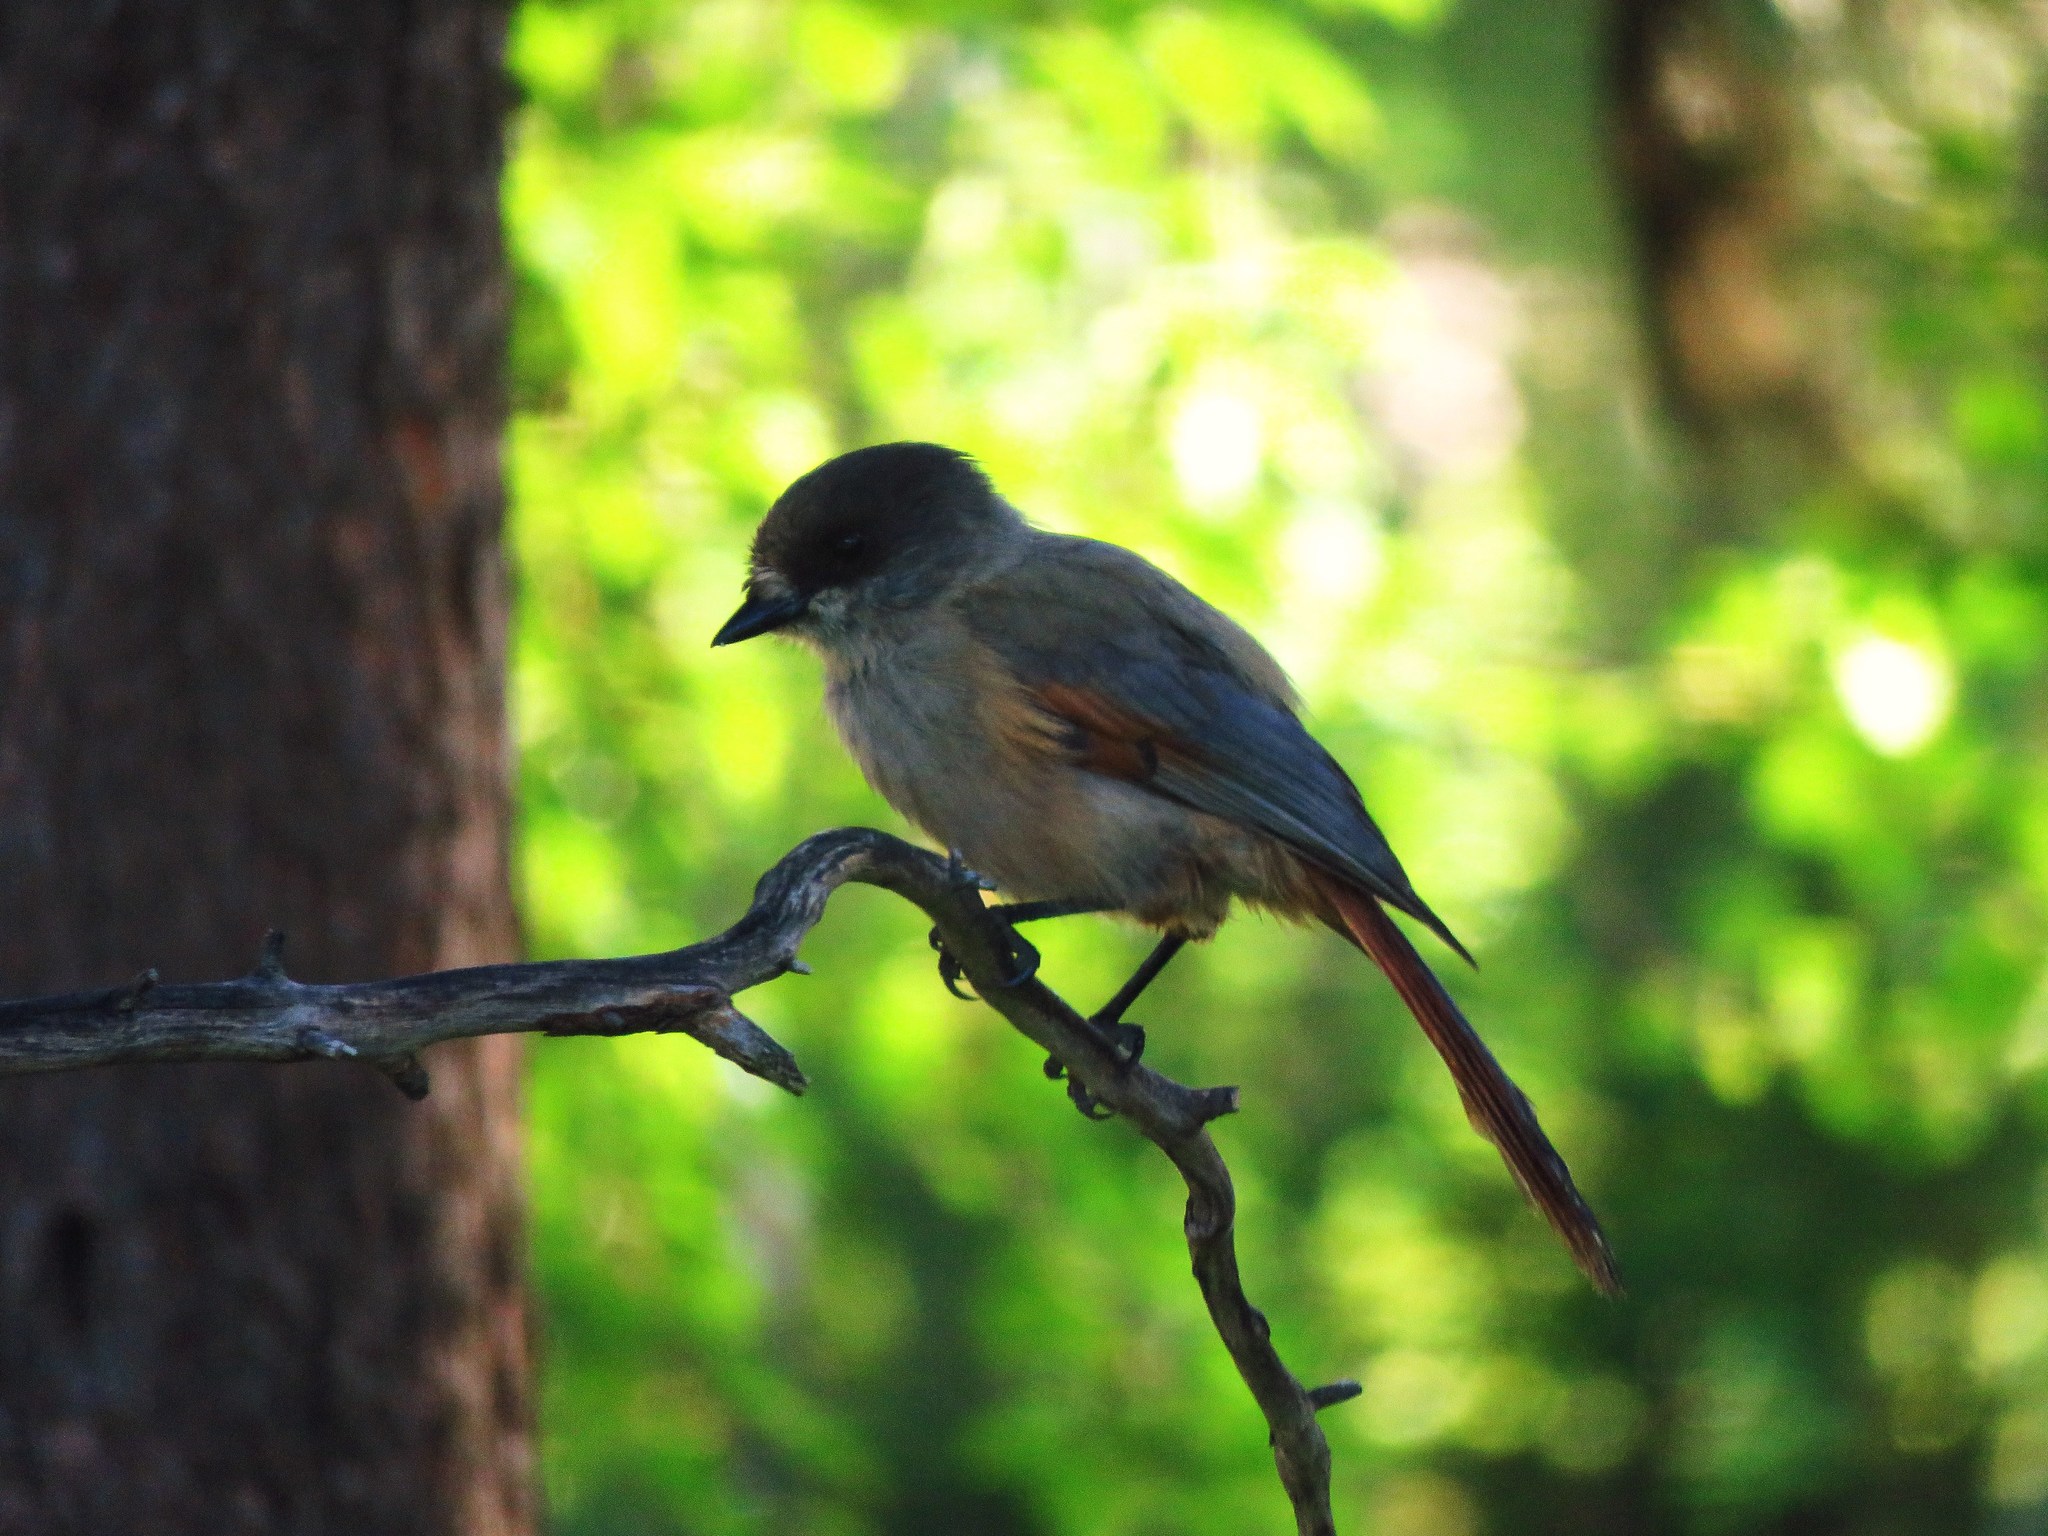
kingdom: Animalia
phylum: Chordata
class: Aves
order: Passeriformes
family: Corvidae
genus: Perisoreus
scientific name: Perisoreus infaustus
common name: Siberian jay
